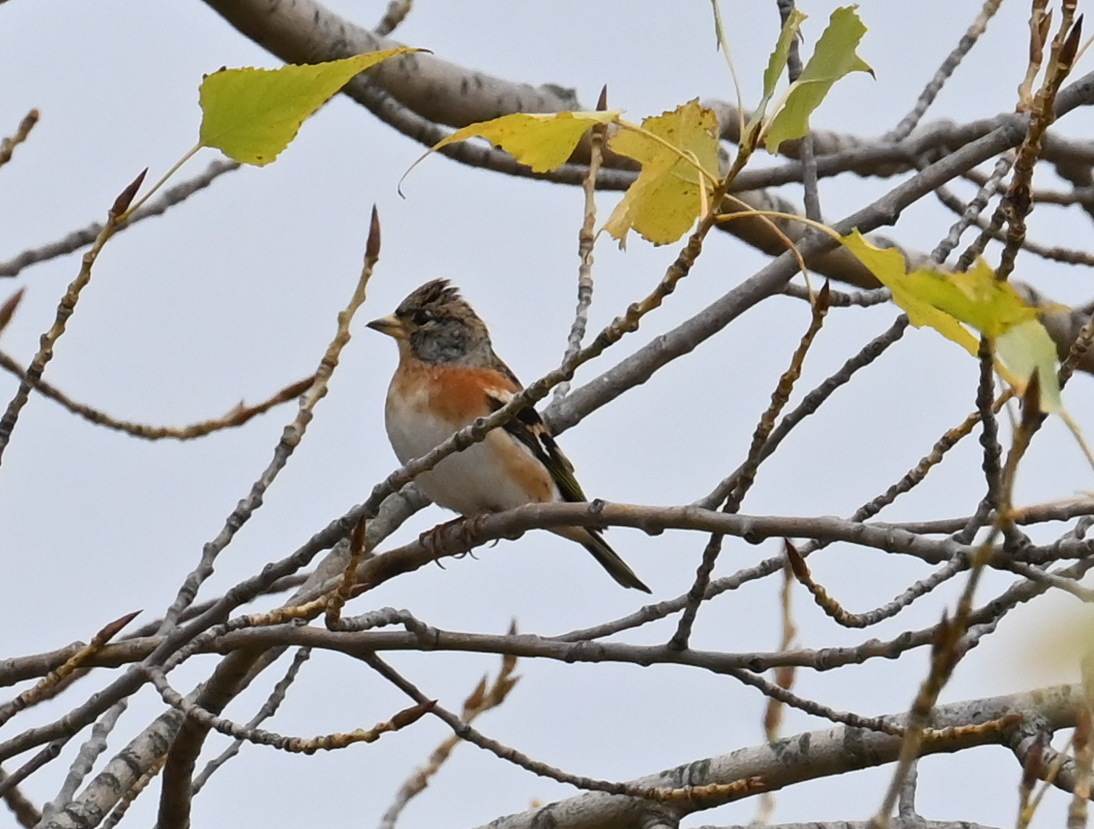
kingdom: Animalia
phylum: Chordata
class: Aves
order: Passeriformes
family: Fringillidae
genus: Fringilla
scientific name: Fringilla montifringilla
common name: Brambling
